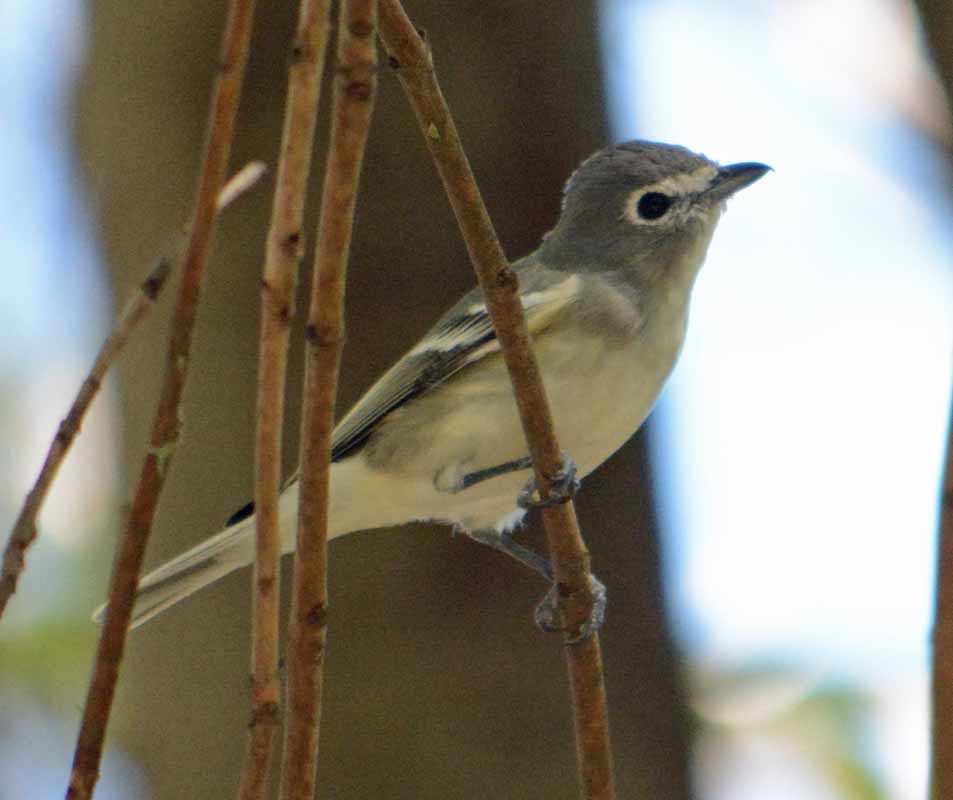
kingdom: Animalia
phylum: Chordata
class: Aves
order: Passeriformes
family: Vireonidae
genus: Vireo
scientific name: Vireo cassinii
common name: Cassin's vireo
